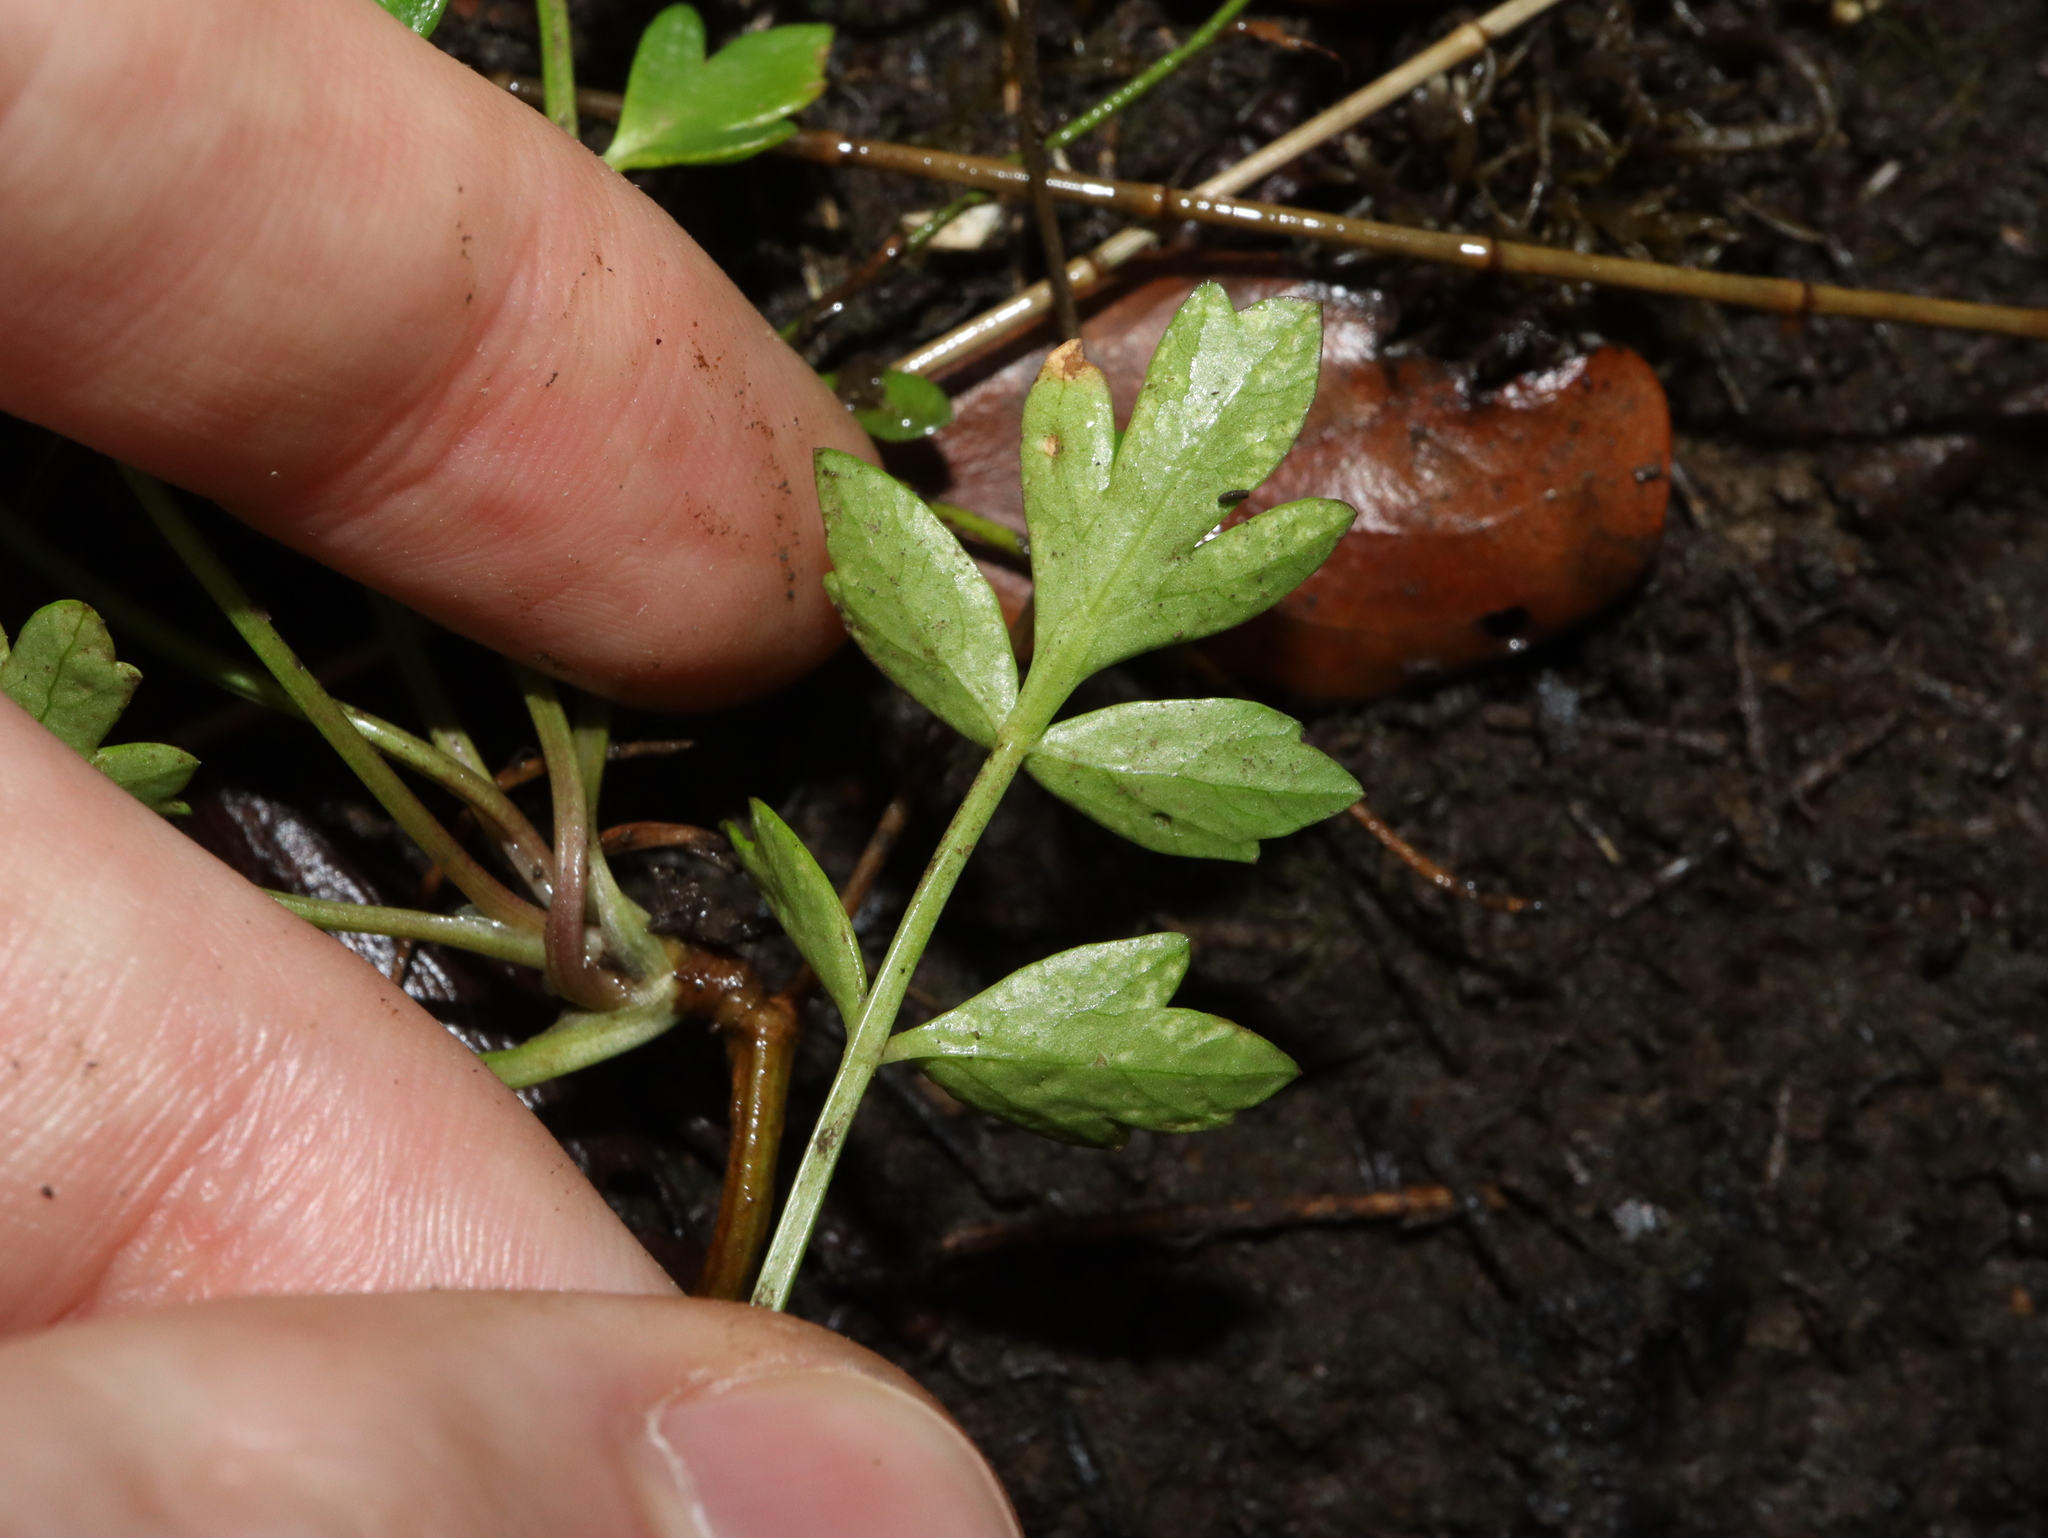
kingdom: Plantae
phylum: Tracheophyta
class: Magnoliopsida
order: Apiales
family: Apiaceae
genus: Apium
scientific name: Apium prostratum
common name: Prostrate marshwort
